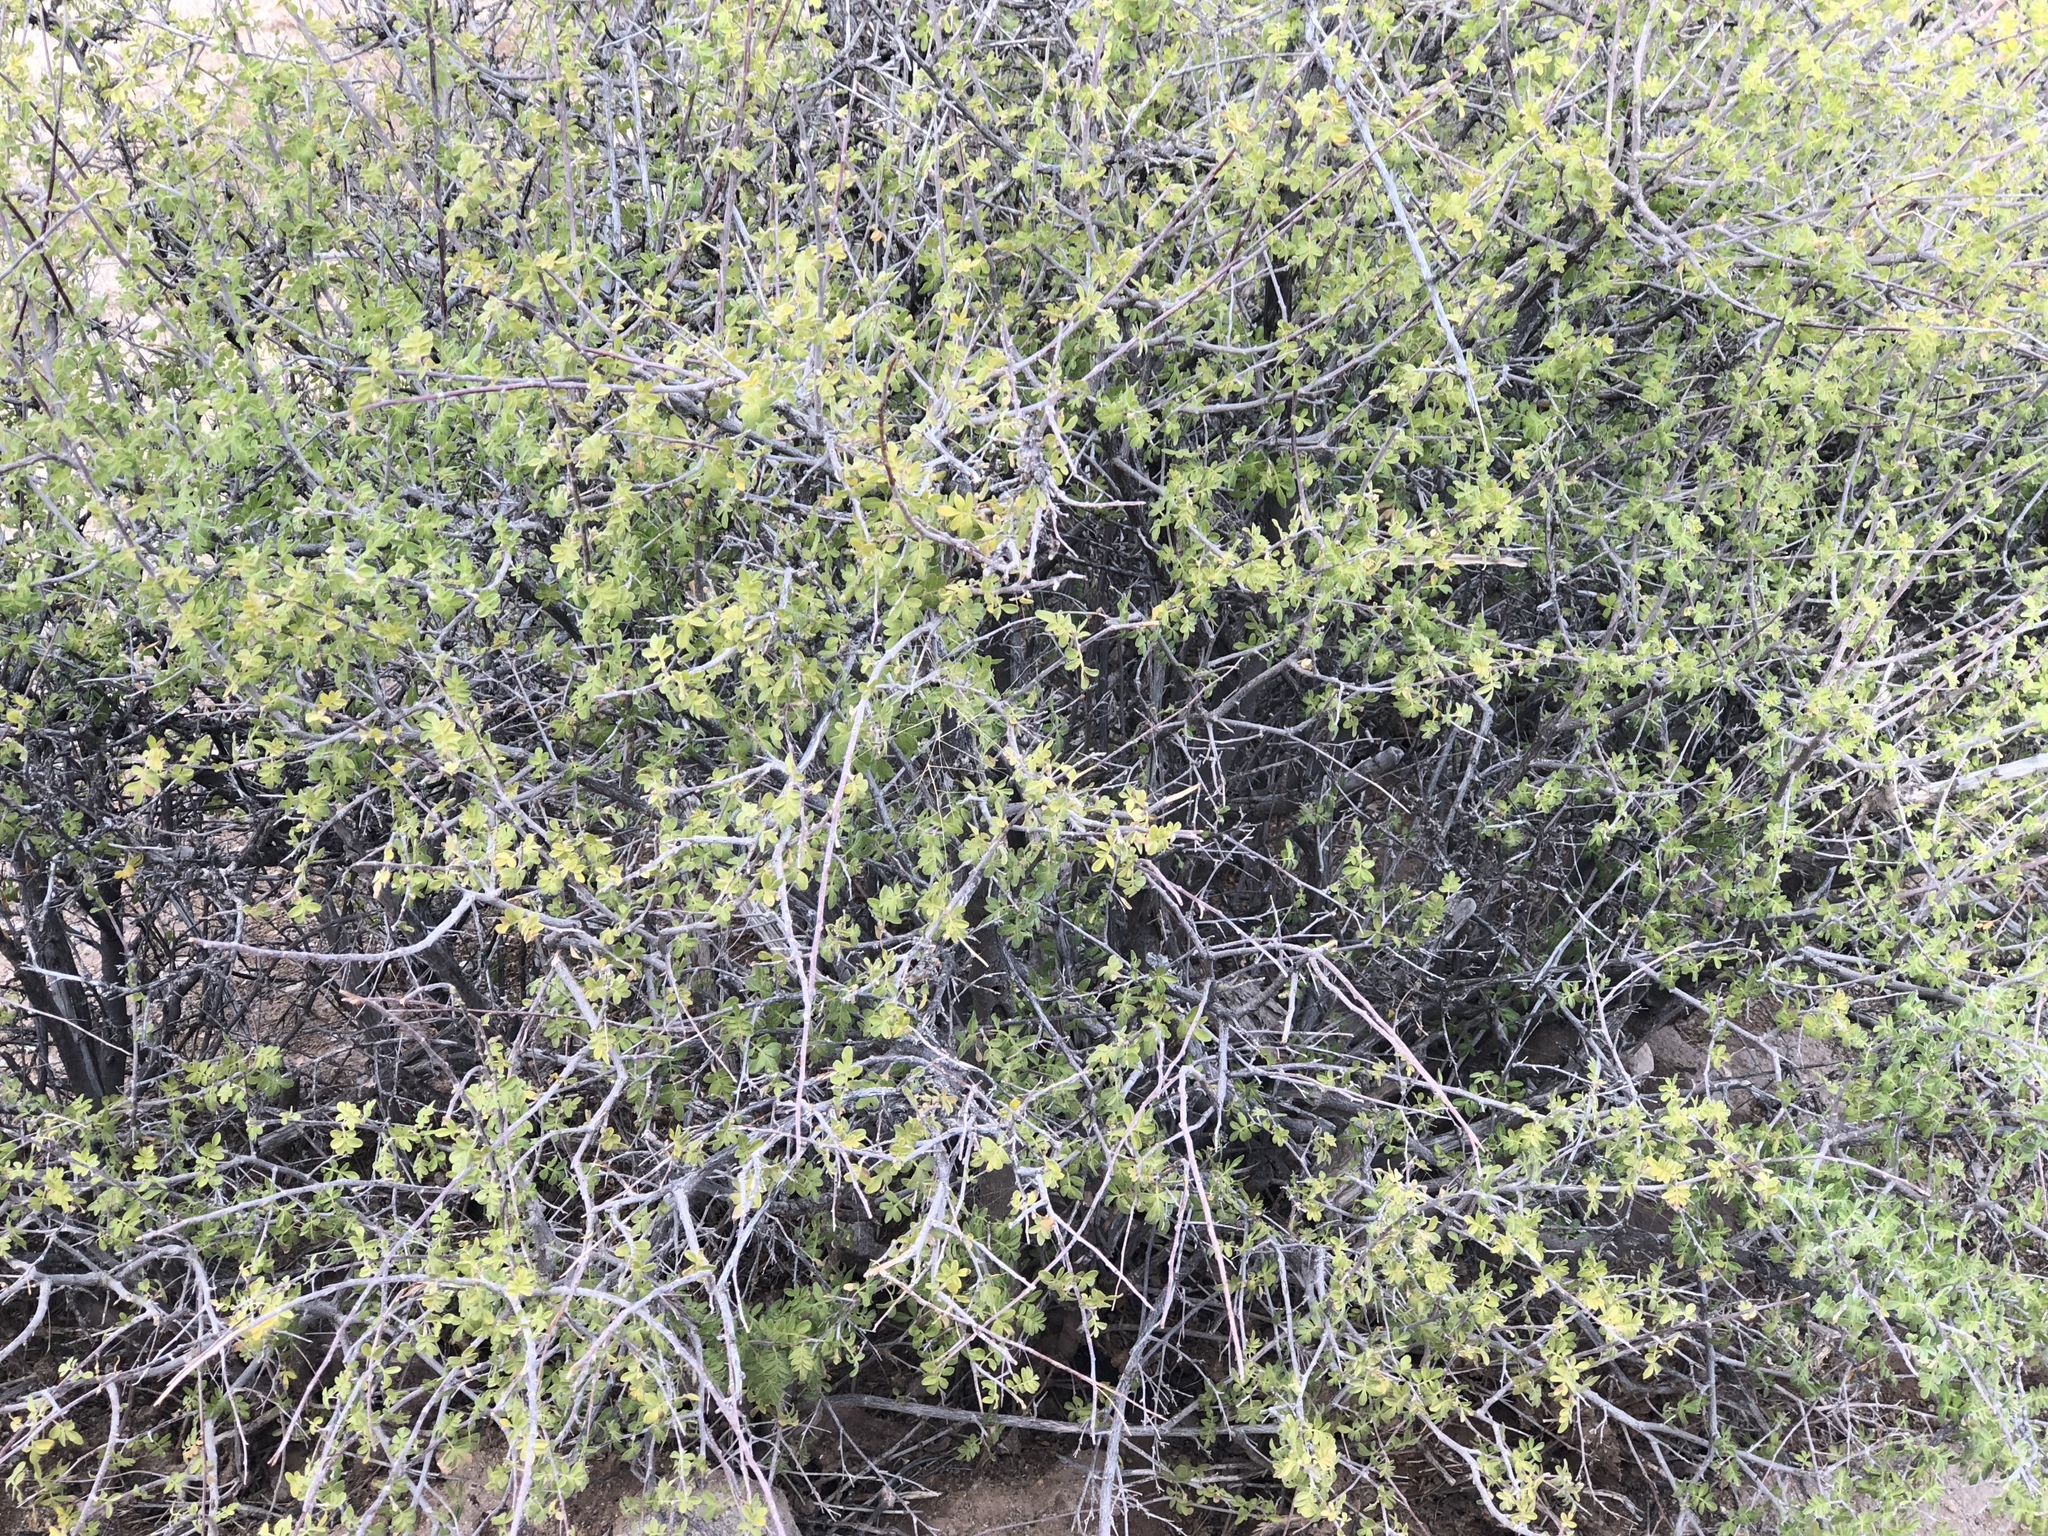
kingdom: Plantae
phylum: Tracheophyta
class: Magnoliopsida
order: Sapindales
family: Anacardiaceae
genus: Rhus
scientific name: Rhus microphylla
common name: Desert sumac
